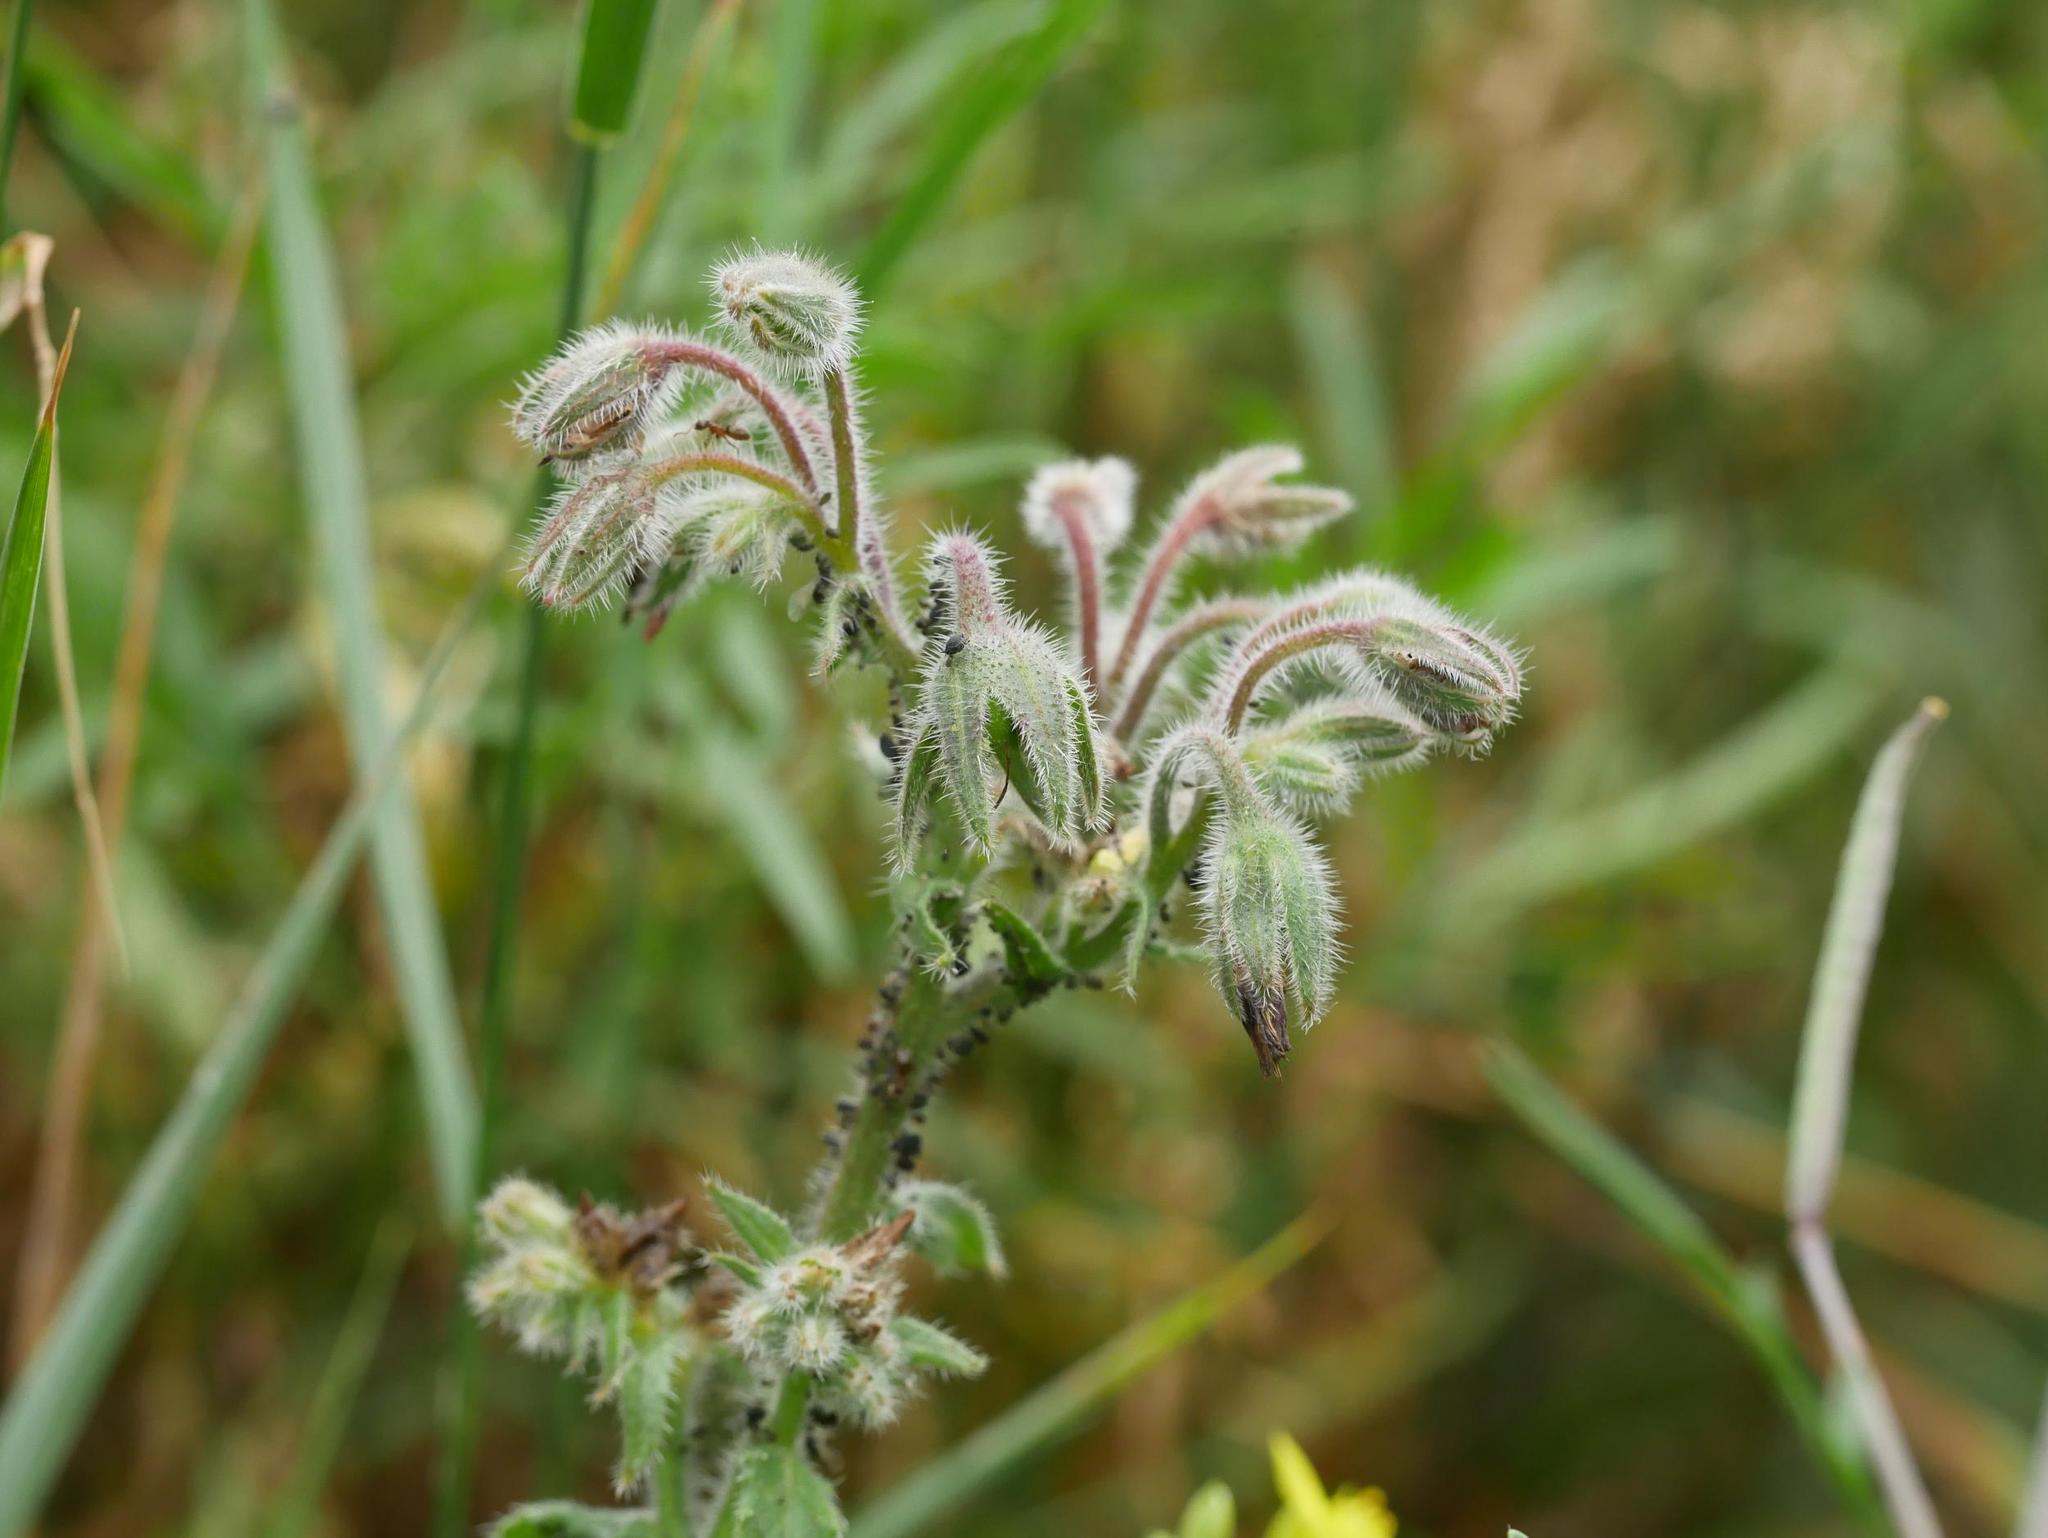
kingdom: Plantae
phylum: Tracheophyta
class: Magnoliopsida
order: Boraginales
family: Boraginaceae
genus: Borago
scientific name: Borago officinalis
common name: Borage
